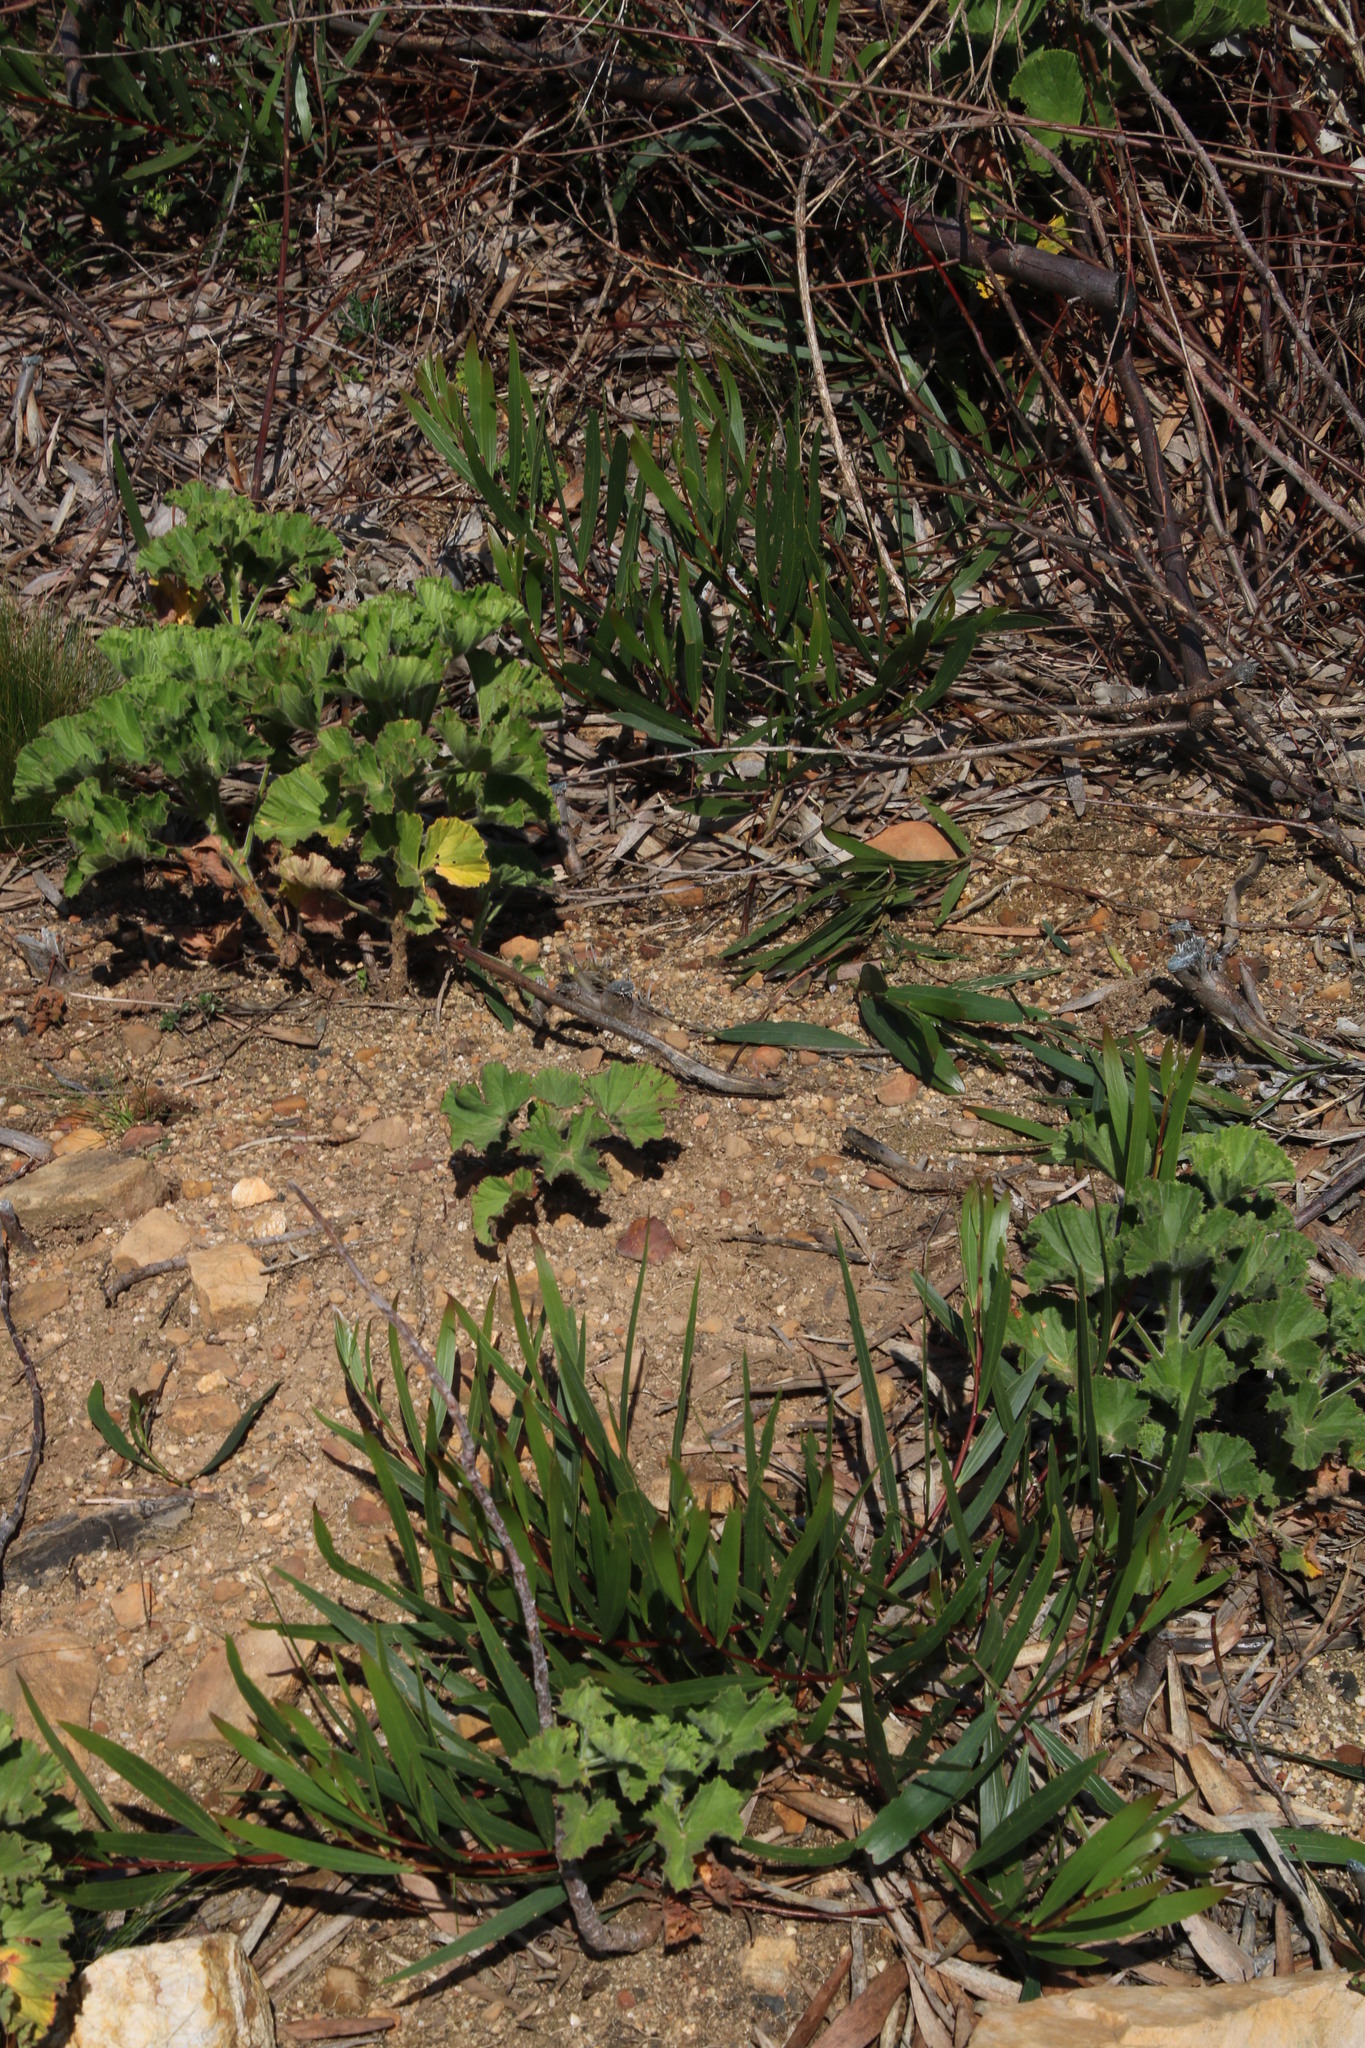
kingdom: Plantae
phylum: Tracheophyta
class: Magnoliopsida
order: Fabales
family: Fabaceae
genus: Acacia
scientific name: Acacia longifolia
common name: Sydney golden wattle
